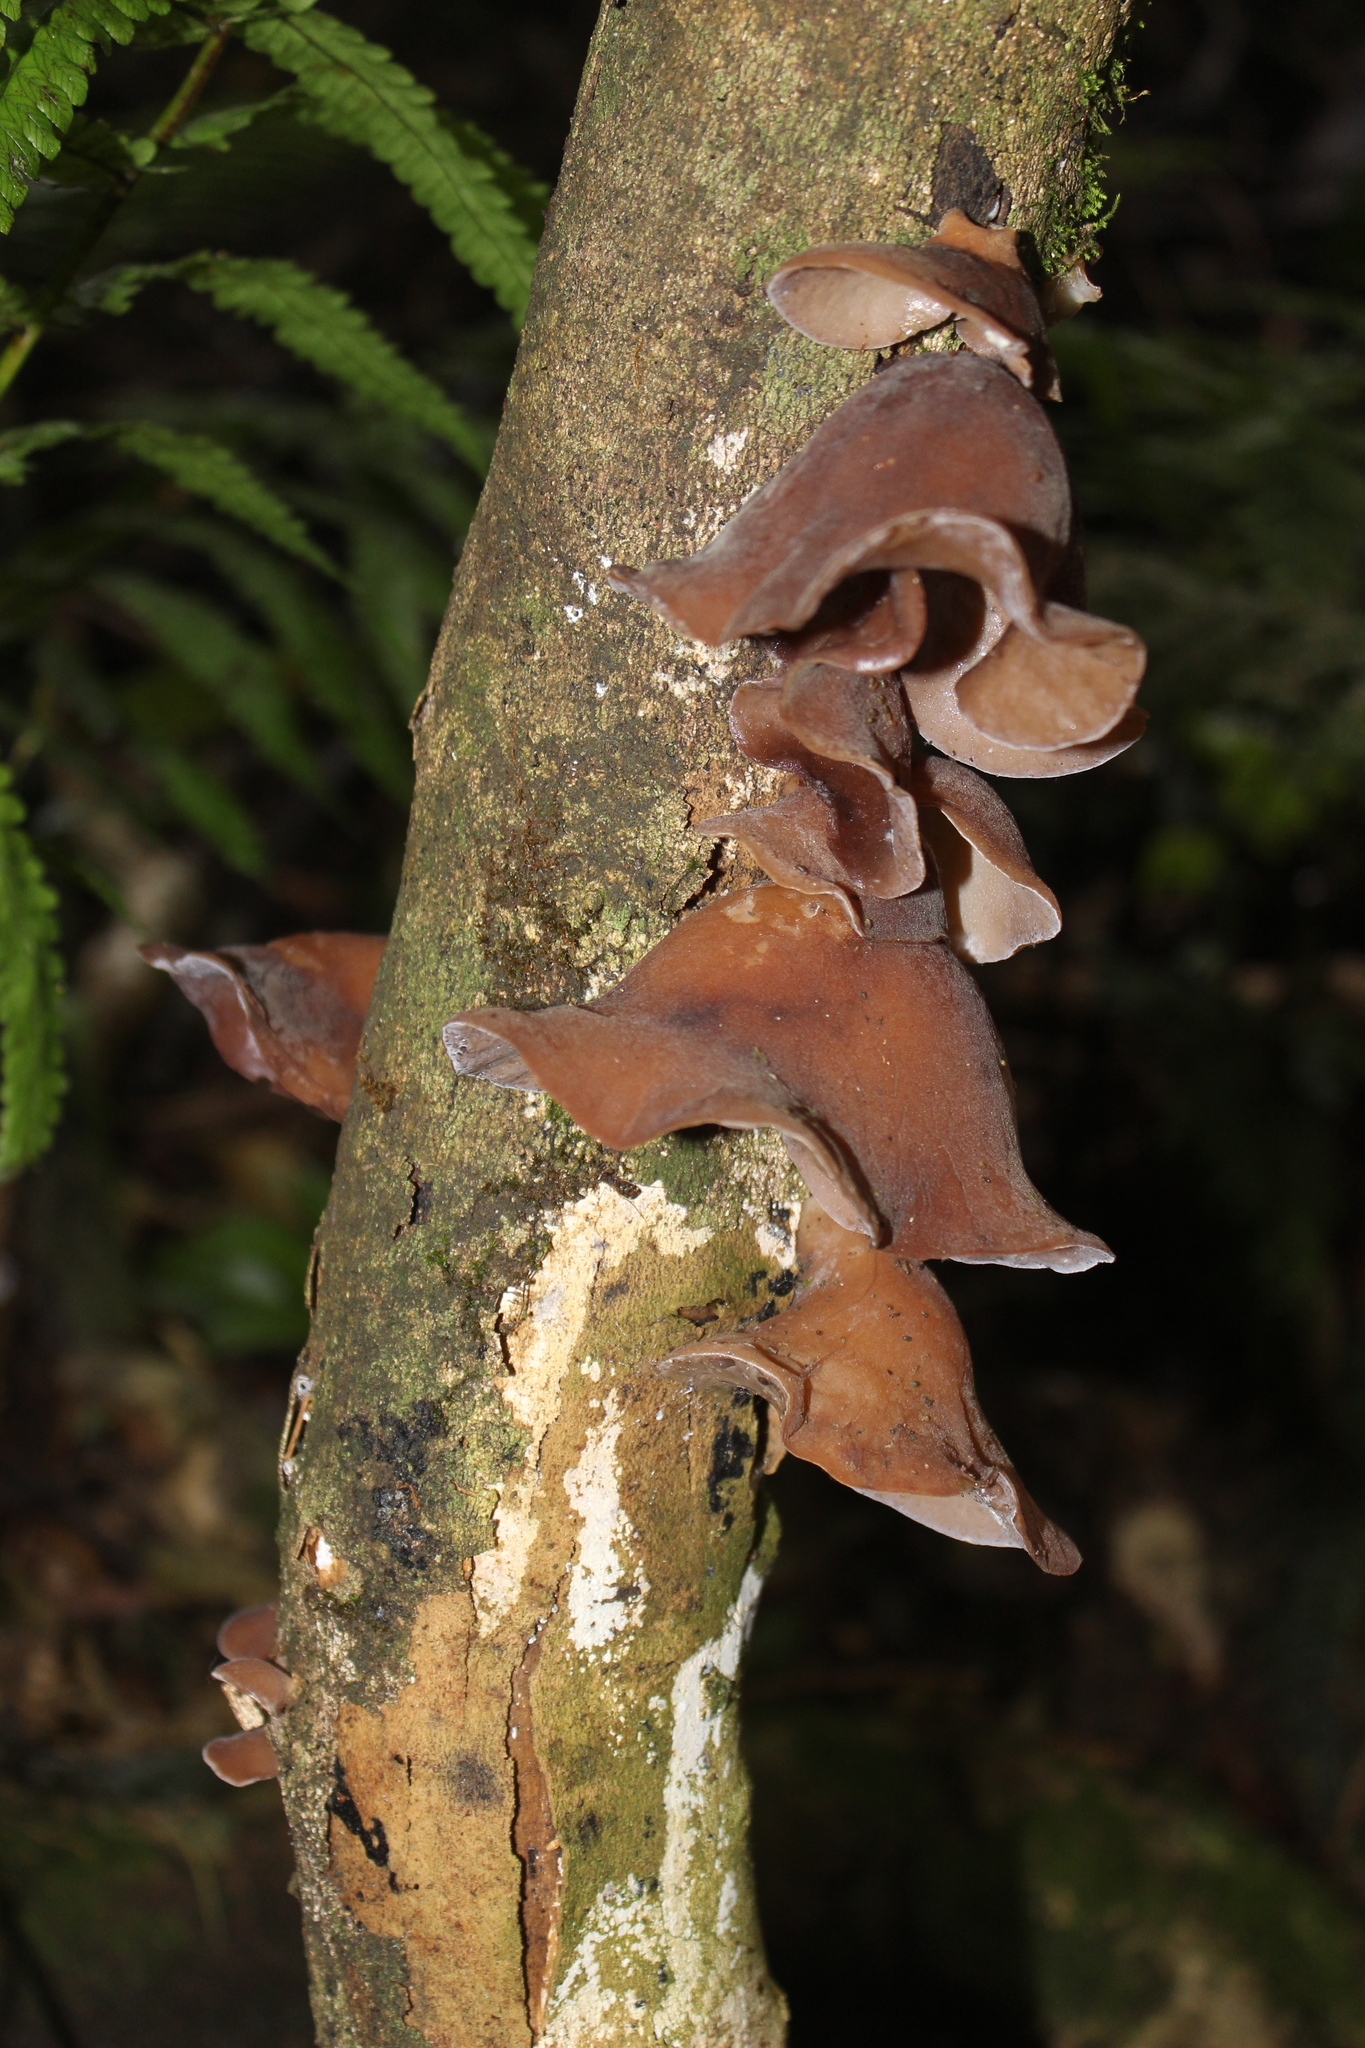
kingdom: Fungi
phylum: Basidiomycota
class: Agaricomycetes
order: Auriculariales
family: Auriculariaceae
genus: Auricularia
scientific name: Auricularia cornea
